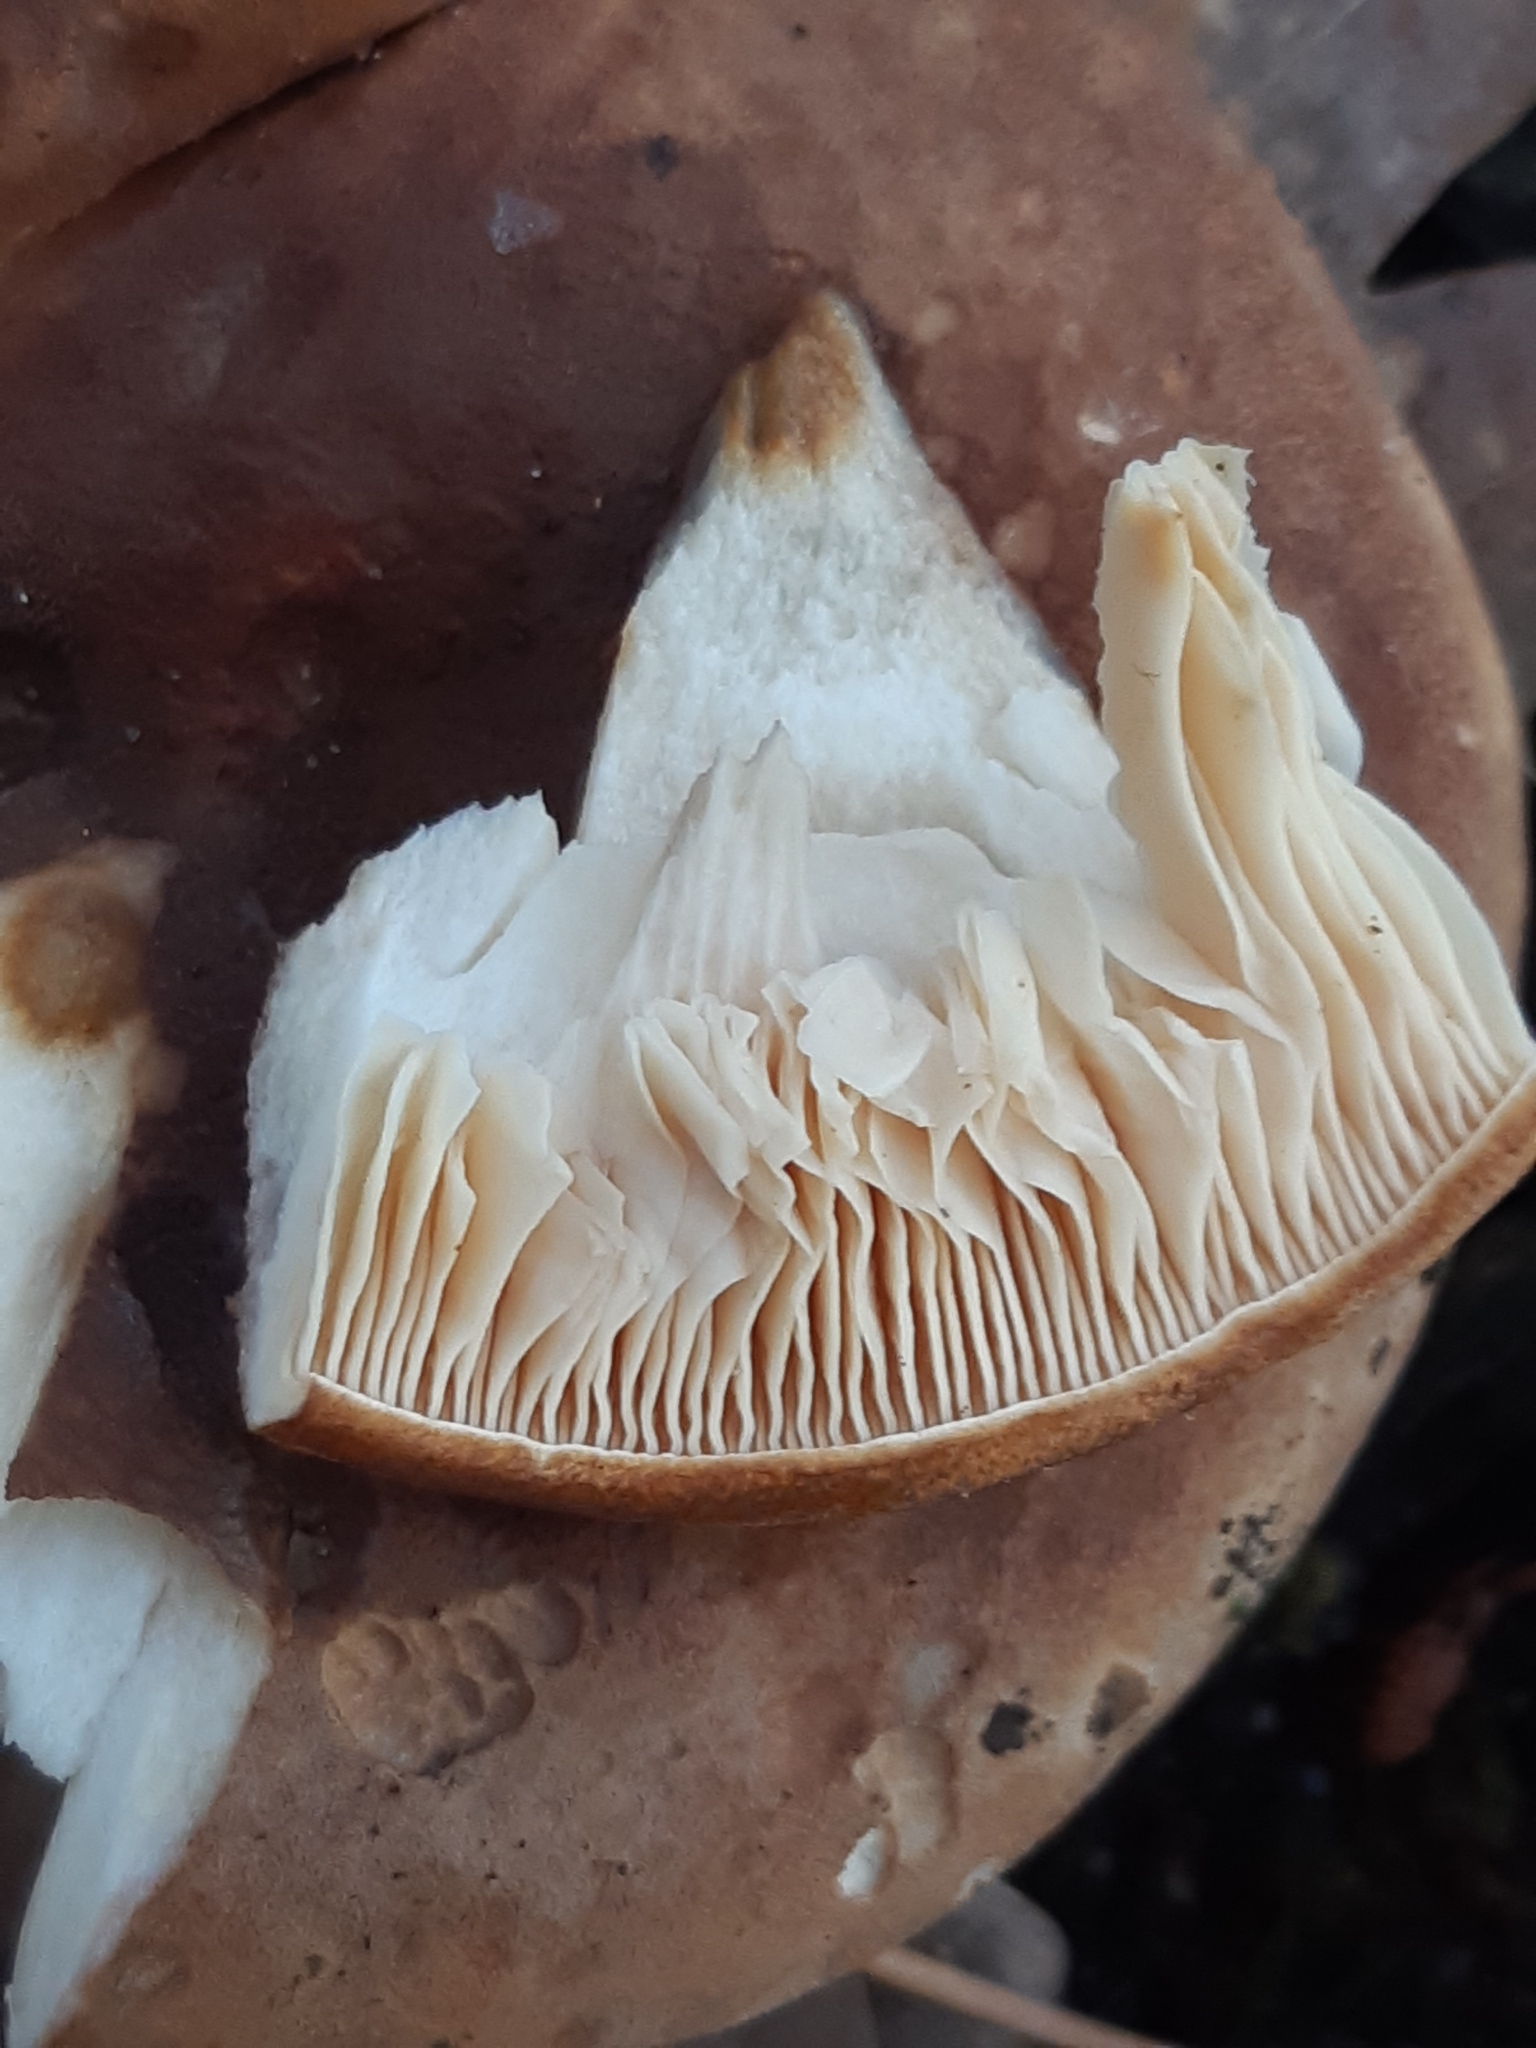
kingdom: Fungi
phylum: Basidiomycota
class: Agaricomycetes
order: Boletales
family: Tapinellaceae
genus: Tapinella
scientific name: Tapinella atrotomentosa
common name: Velvet rollrim
